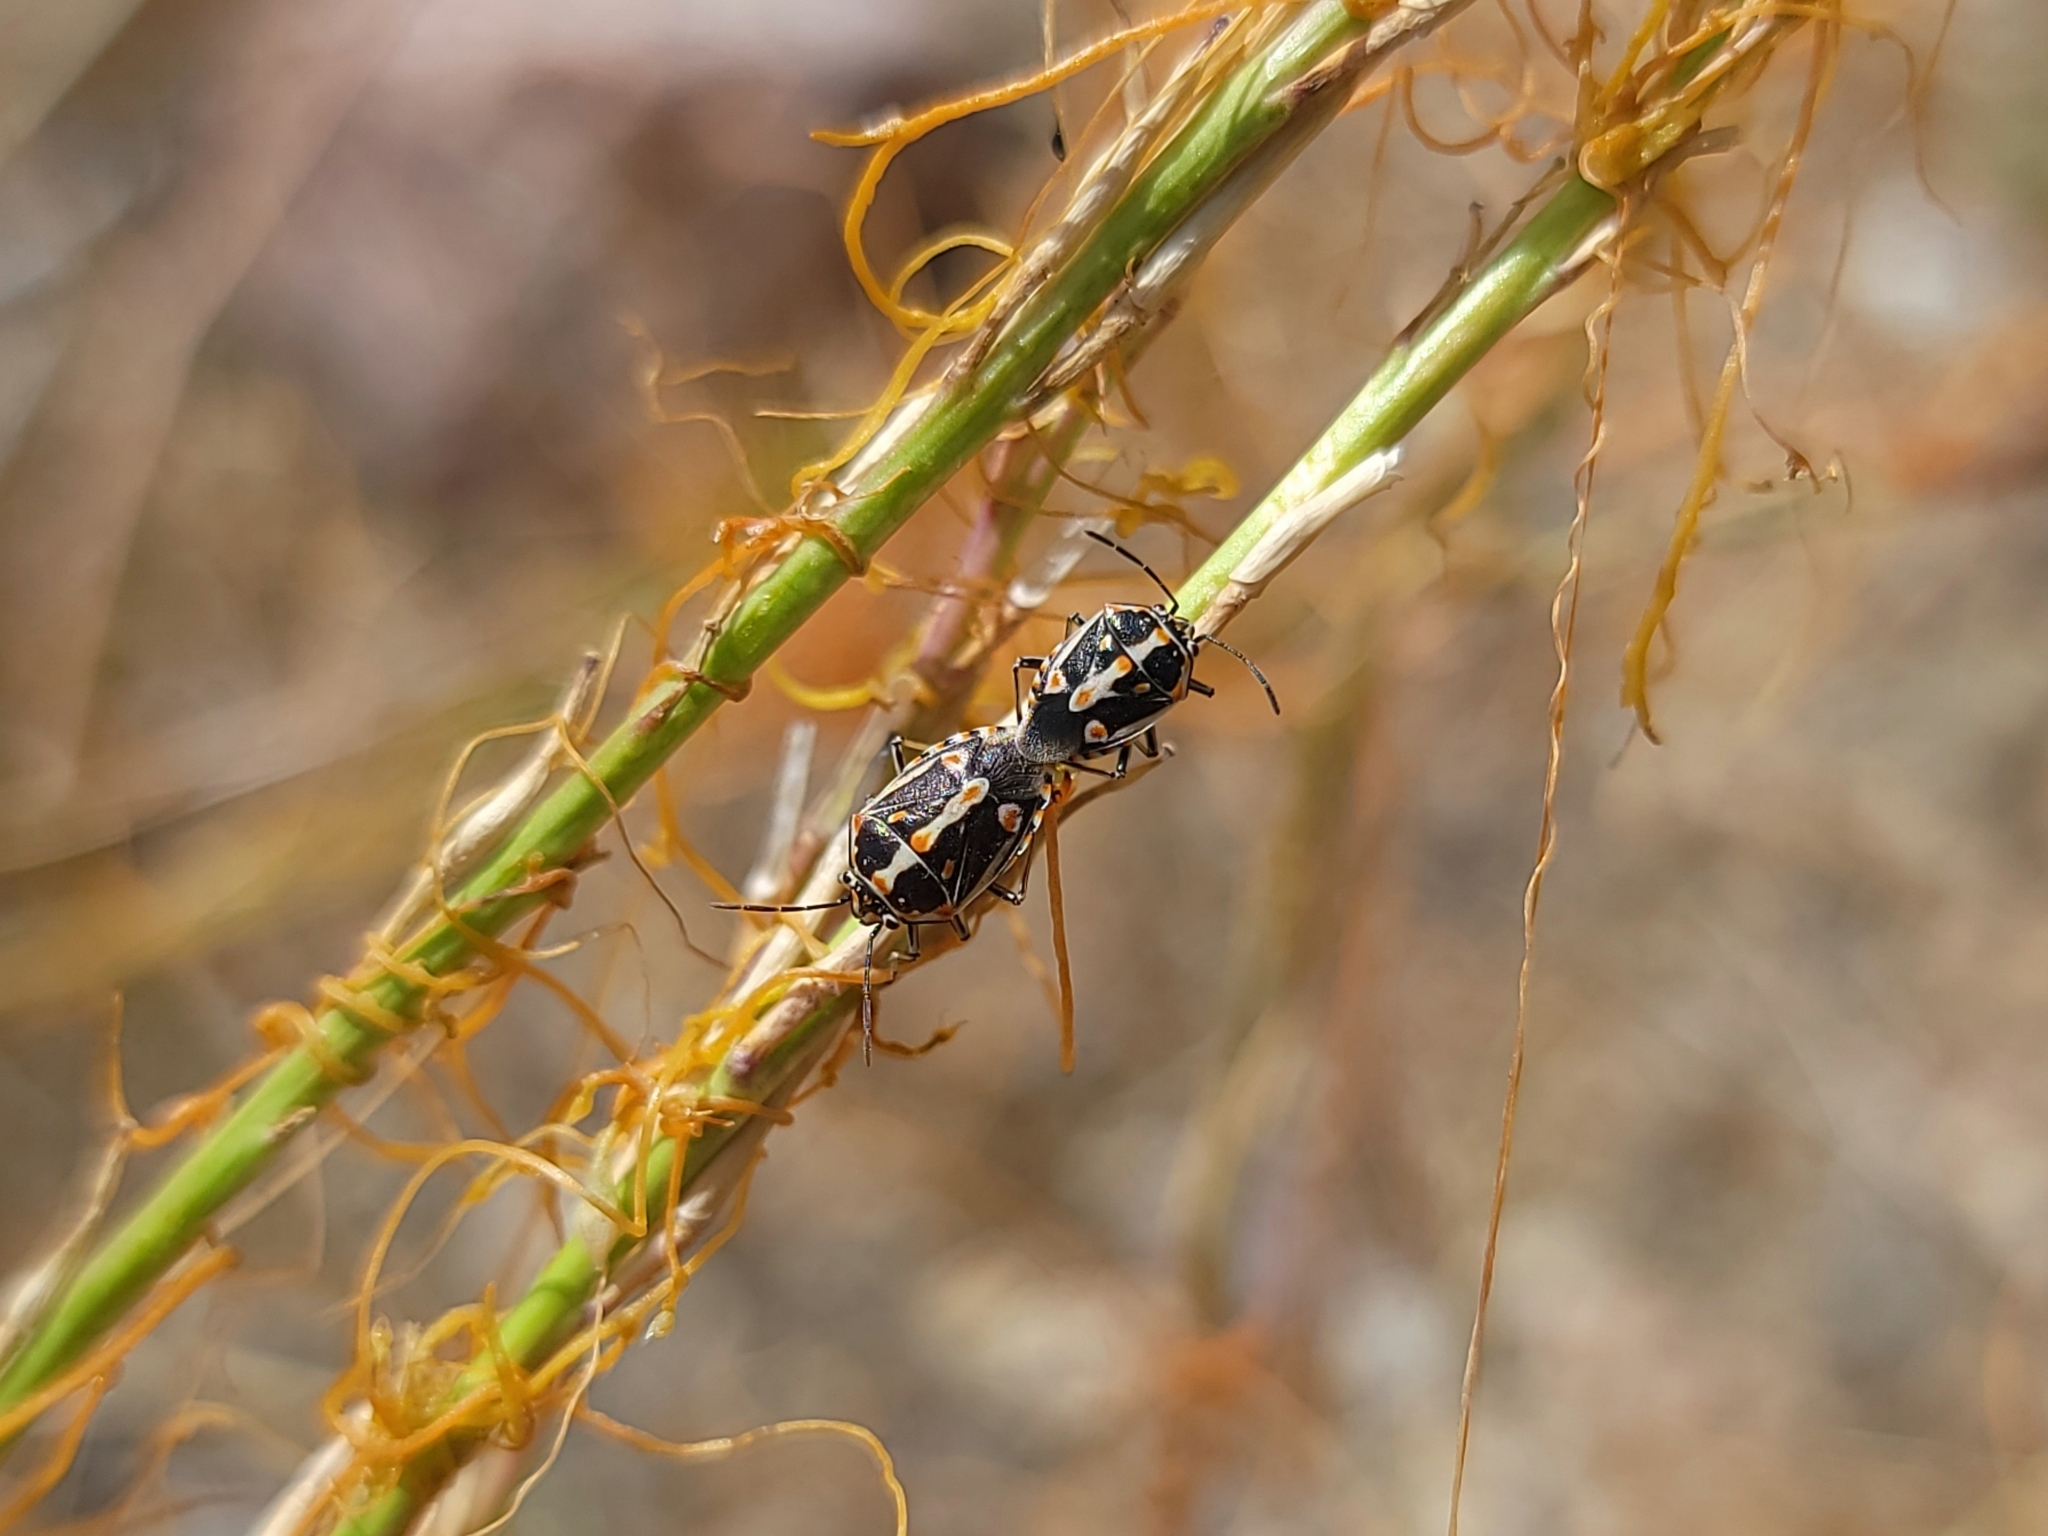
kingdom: Animalia
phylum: Arthropoda
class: Insecta
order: Hemiptera
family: Pentatomidae
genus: Bagrada
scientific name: Bagrada hilaris
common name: Bagrada bug
